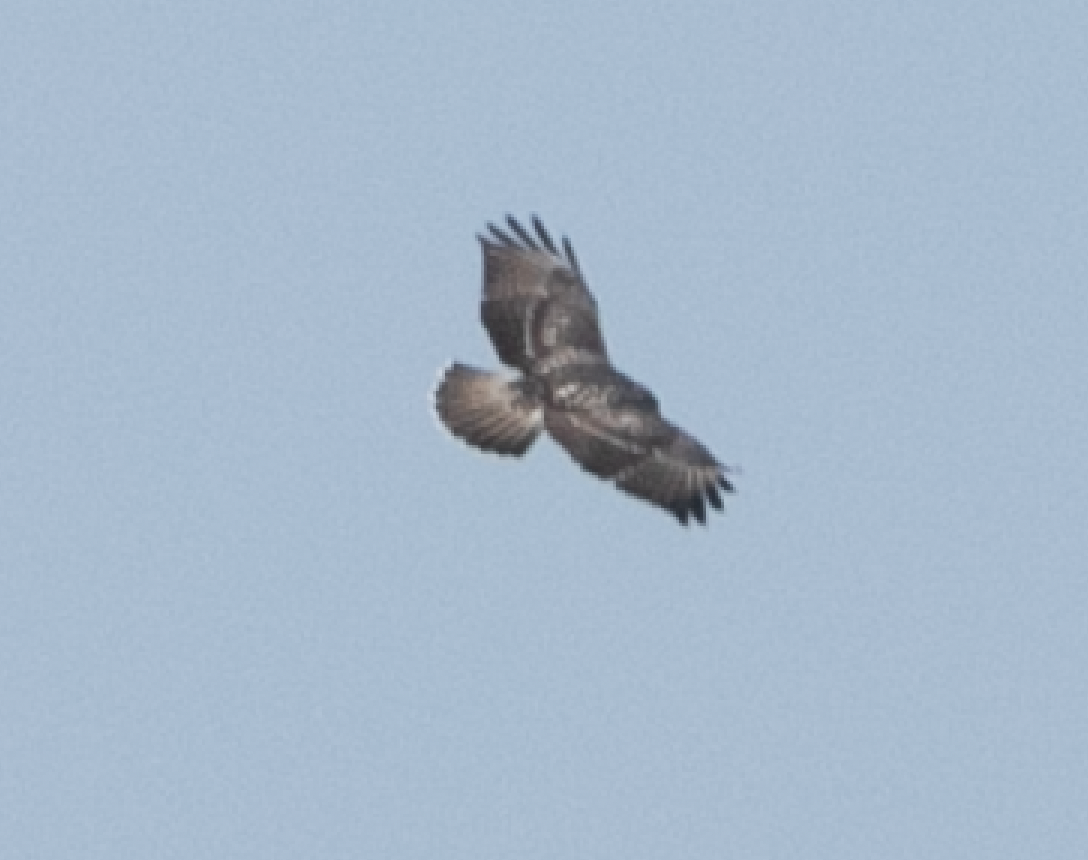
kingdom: Animalia
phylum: Chordata
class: Aves
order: Accipitriformes
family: Accipitridae
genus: Buteo
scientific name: Buteo buteo
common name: Common buzzard
